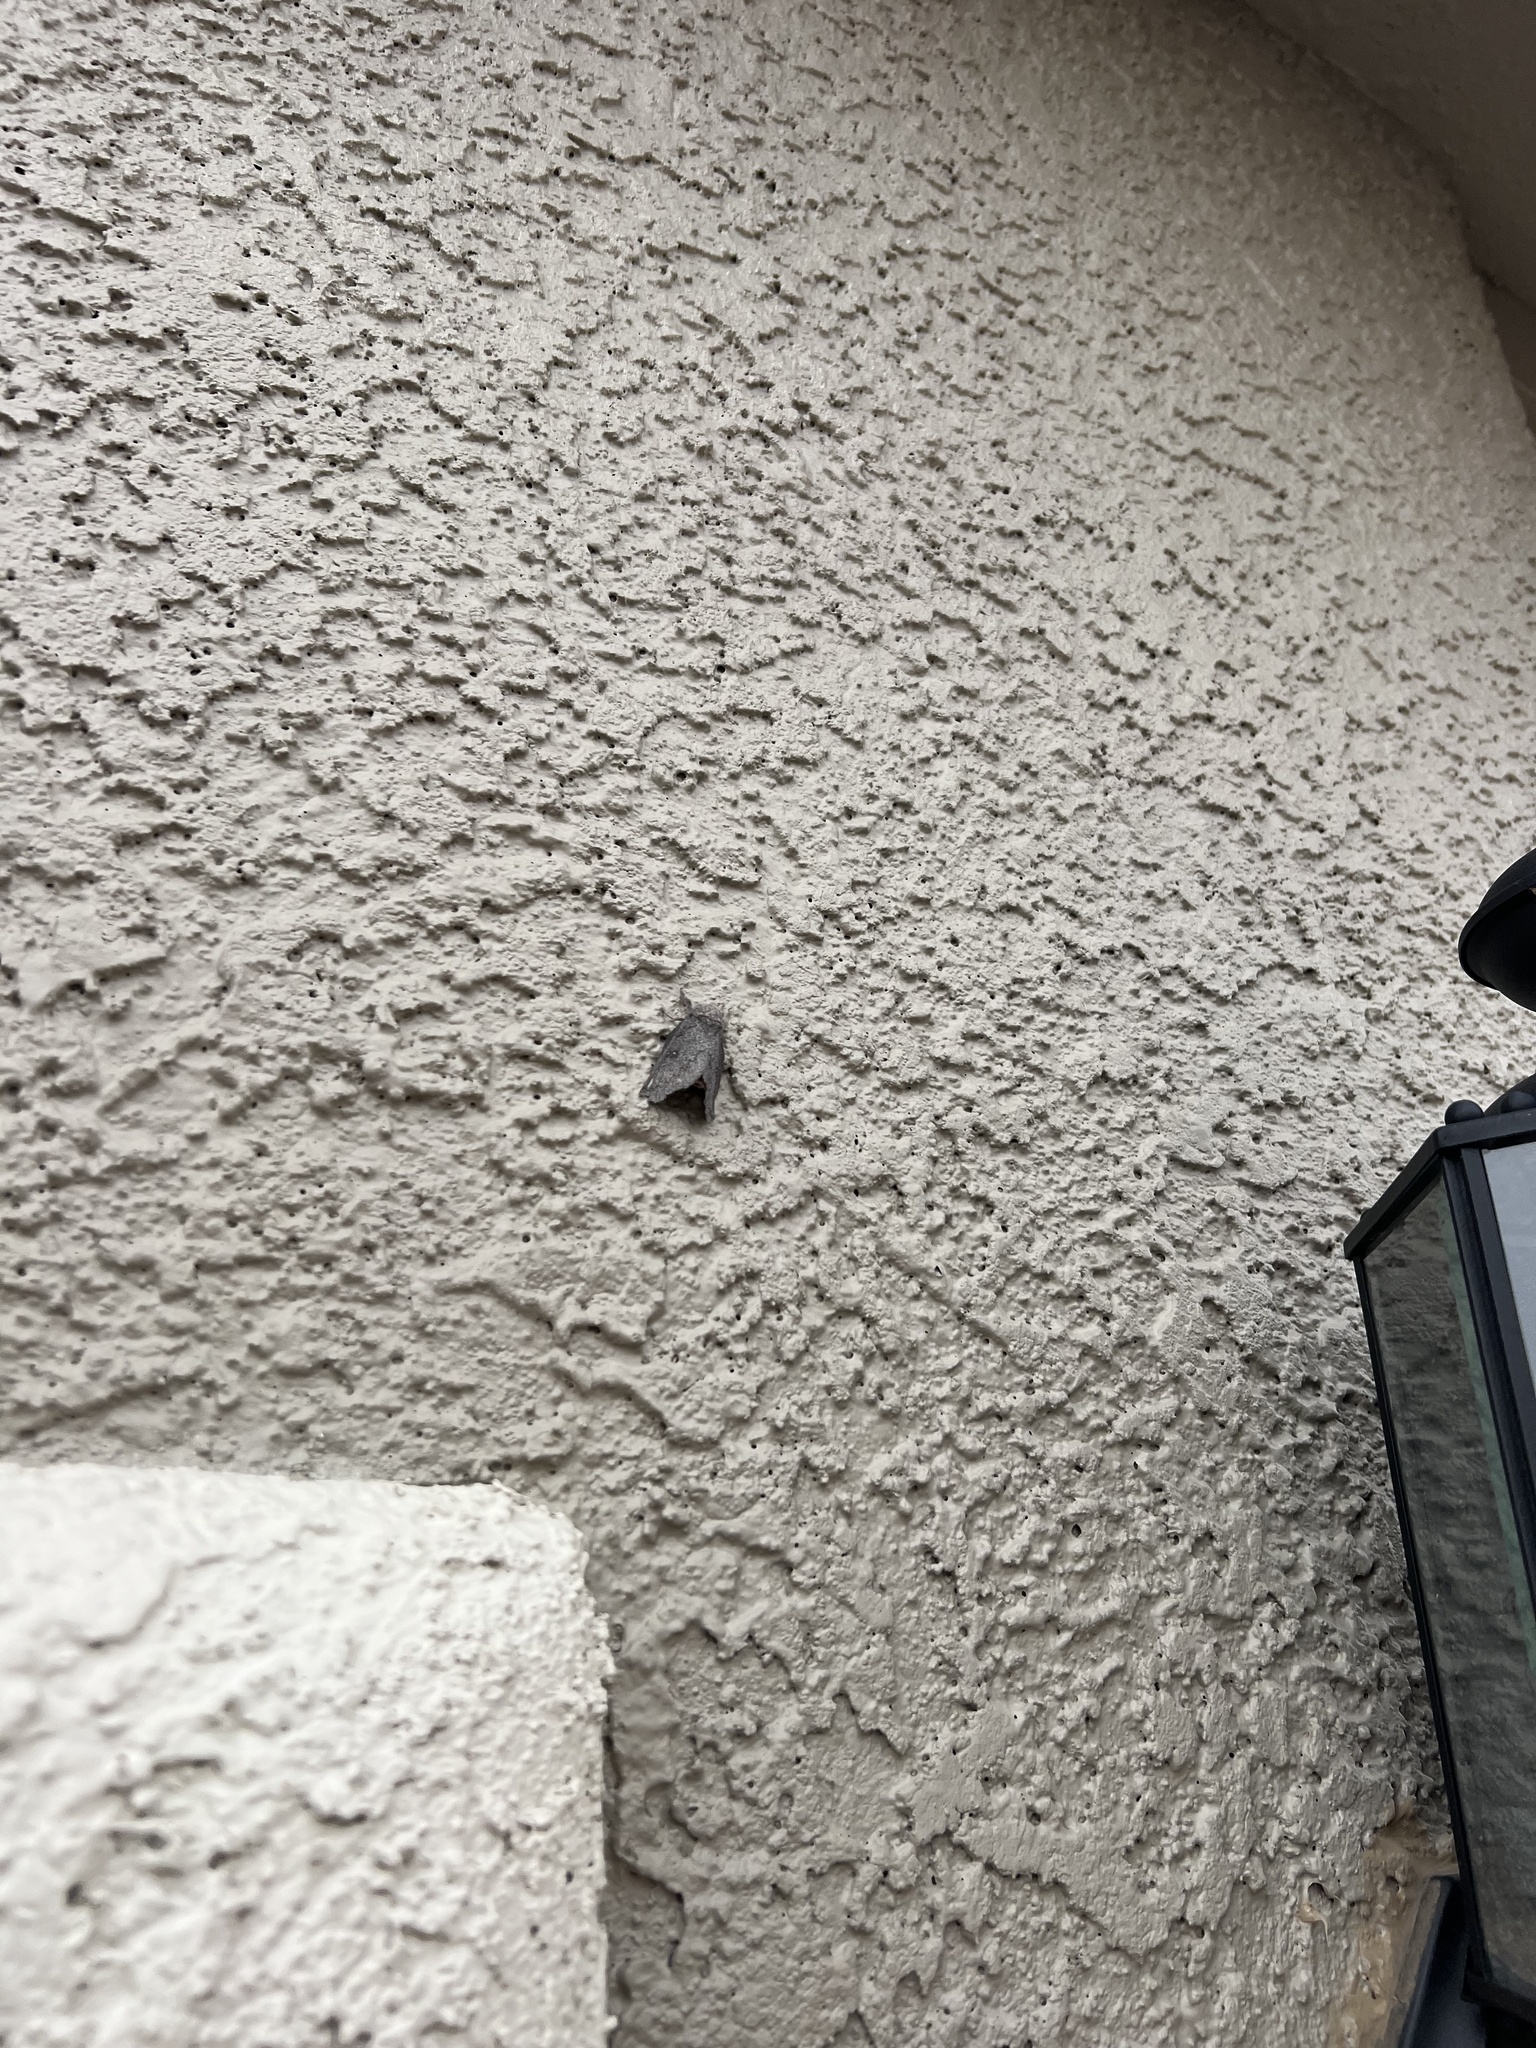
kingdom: Animalia
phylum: Arthropoda
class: Insecta
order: Lepidoptera
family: Saturniidae
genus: Syssphinx
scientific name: Syssphinx hubbardi
